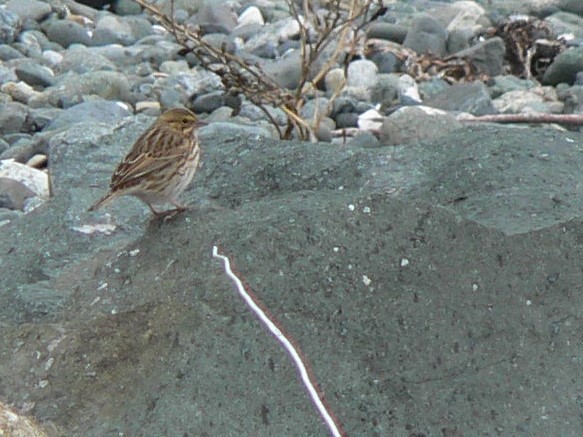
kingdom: Animalia
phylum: Chordata
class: Aves
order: Passeriformes
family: Passerellidae
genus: Passerculus
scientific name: Passerculus sandwichensis
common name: Savannah sparrow
